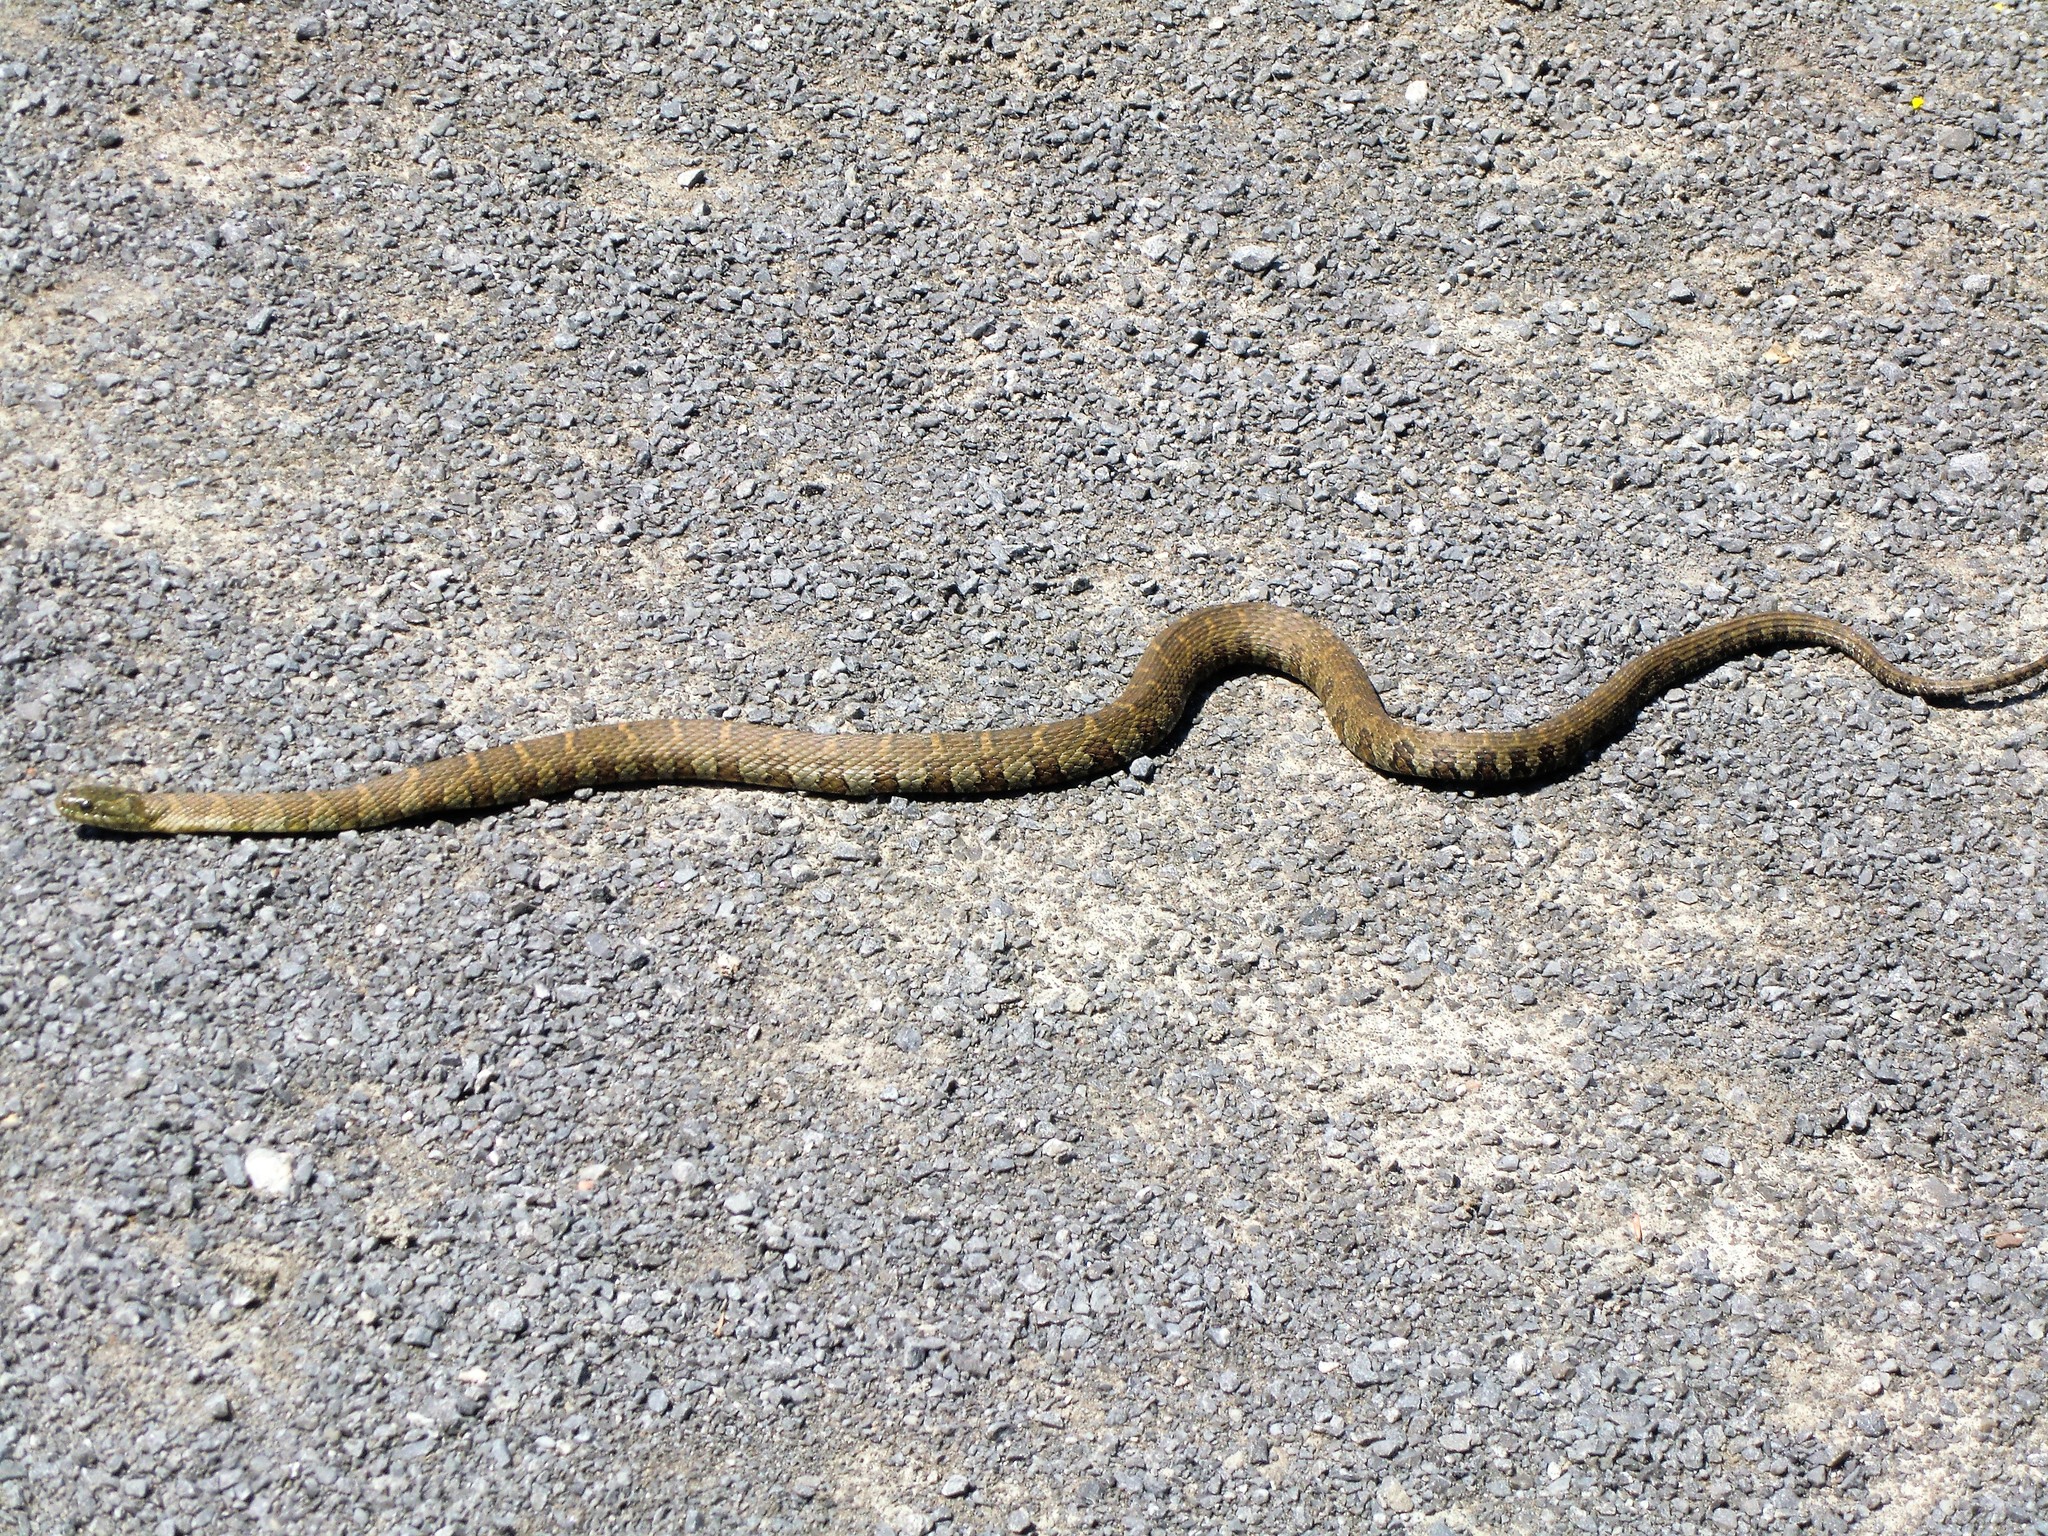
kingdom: Animalia
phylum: Chordata
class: Squamata
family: Colubridae
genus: Nerodia
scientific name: Nerodia sipedon
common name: Northern water snake
